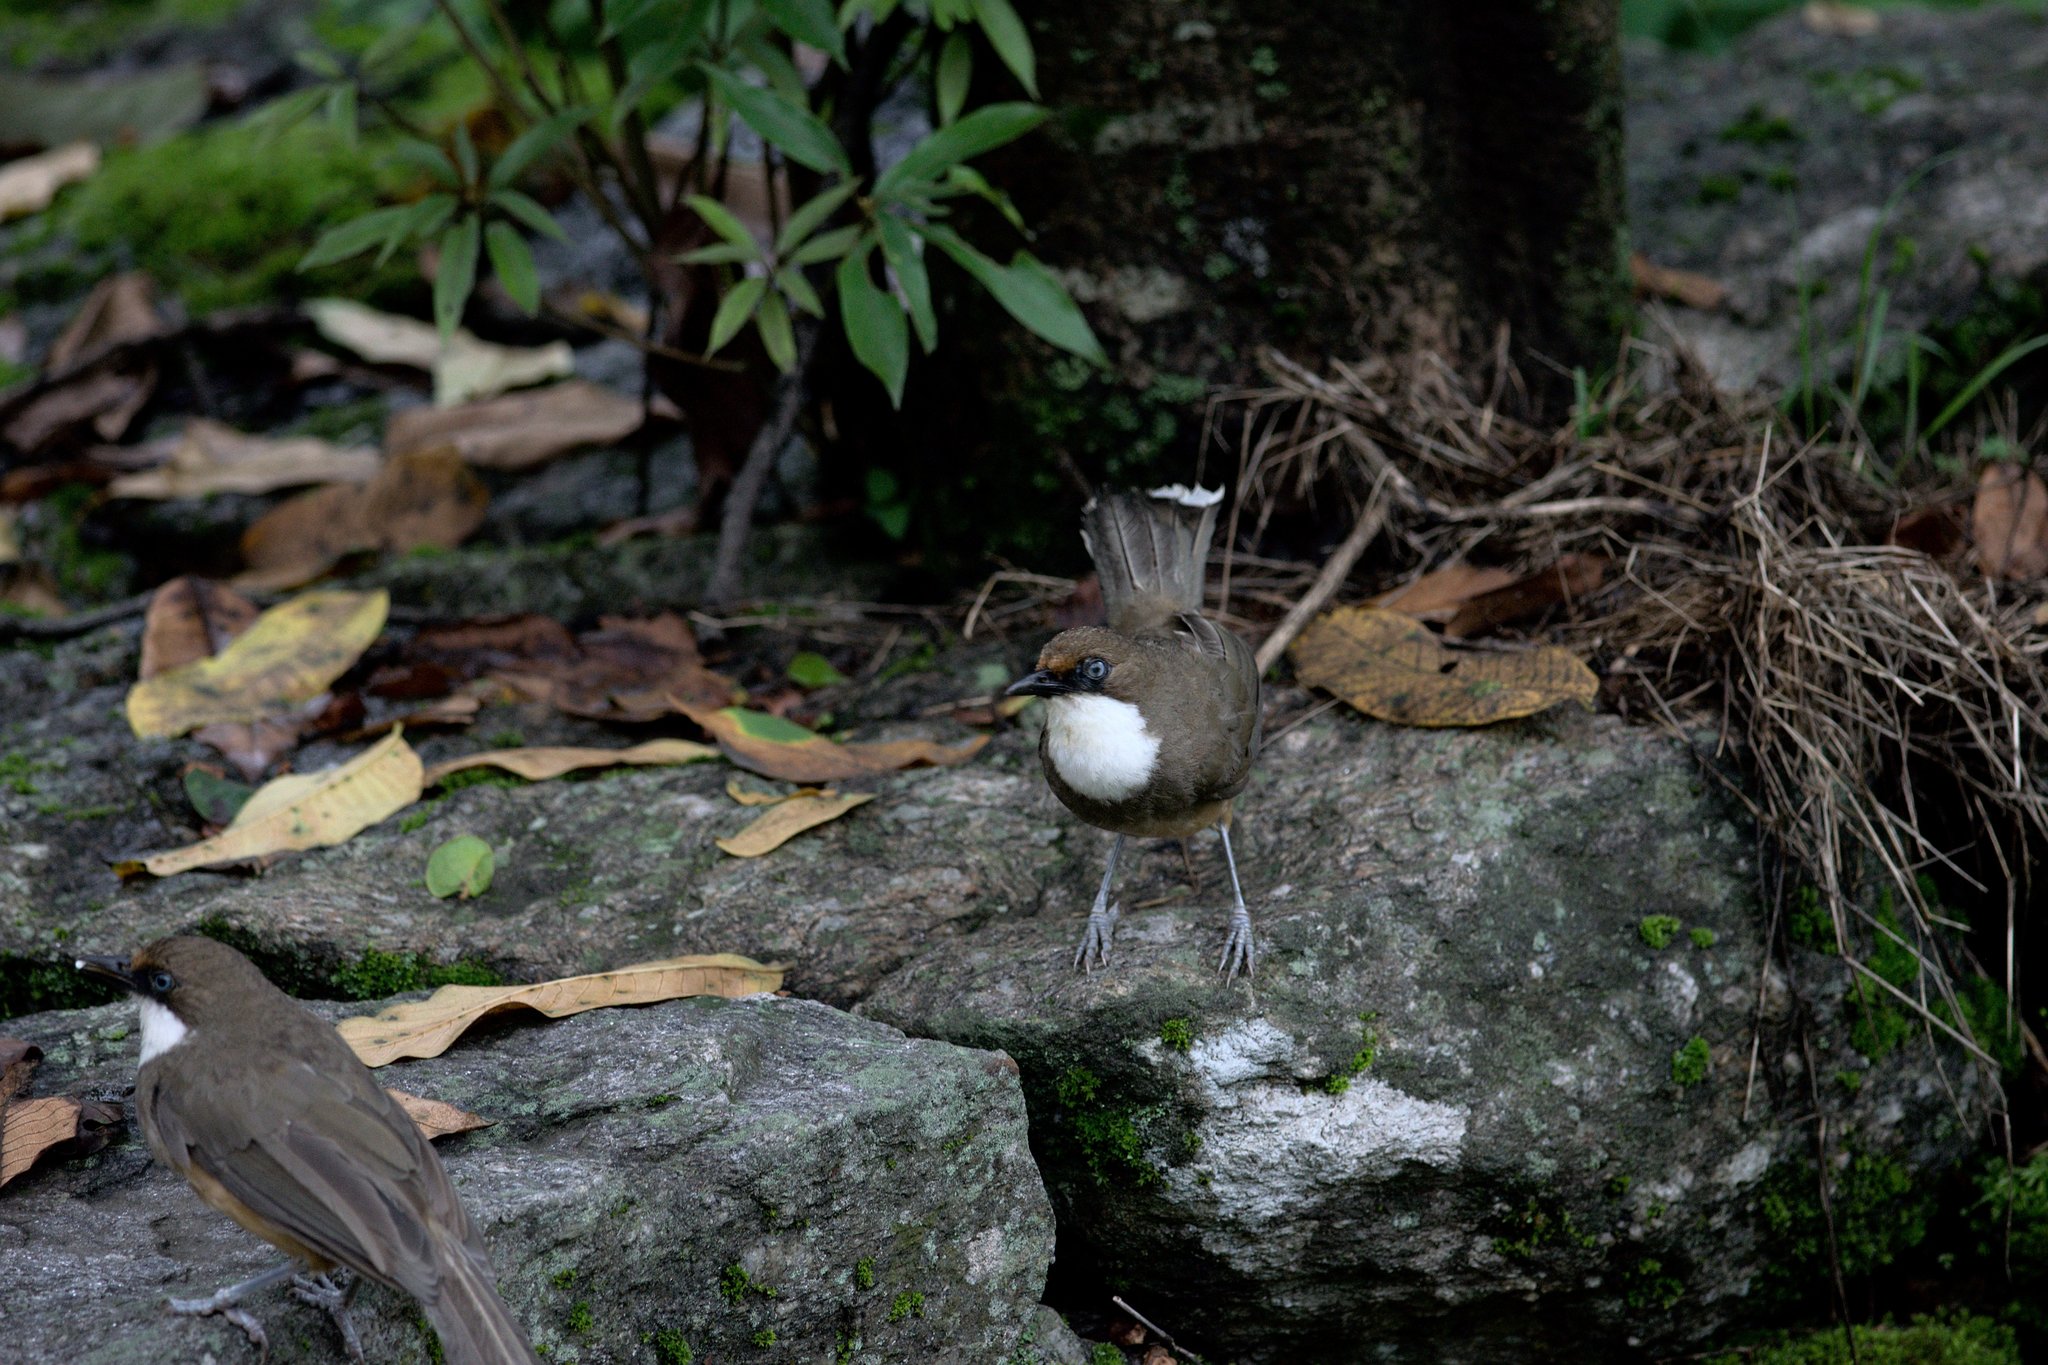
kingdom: Animalia
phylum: Chordata
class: Aves
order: Passeriformes
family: Leiothrichidae
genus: Garrulax
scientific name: Garrulax albogularis
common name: White-throated laughingthrush
